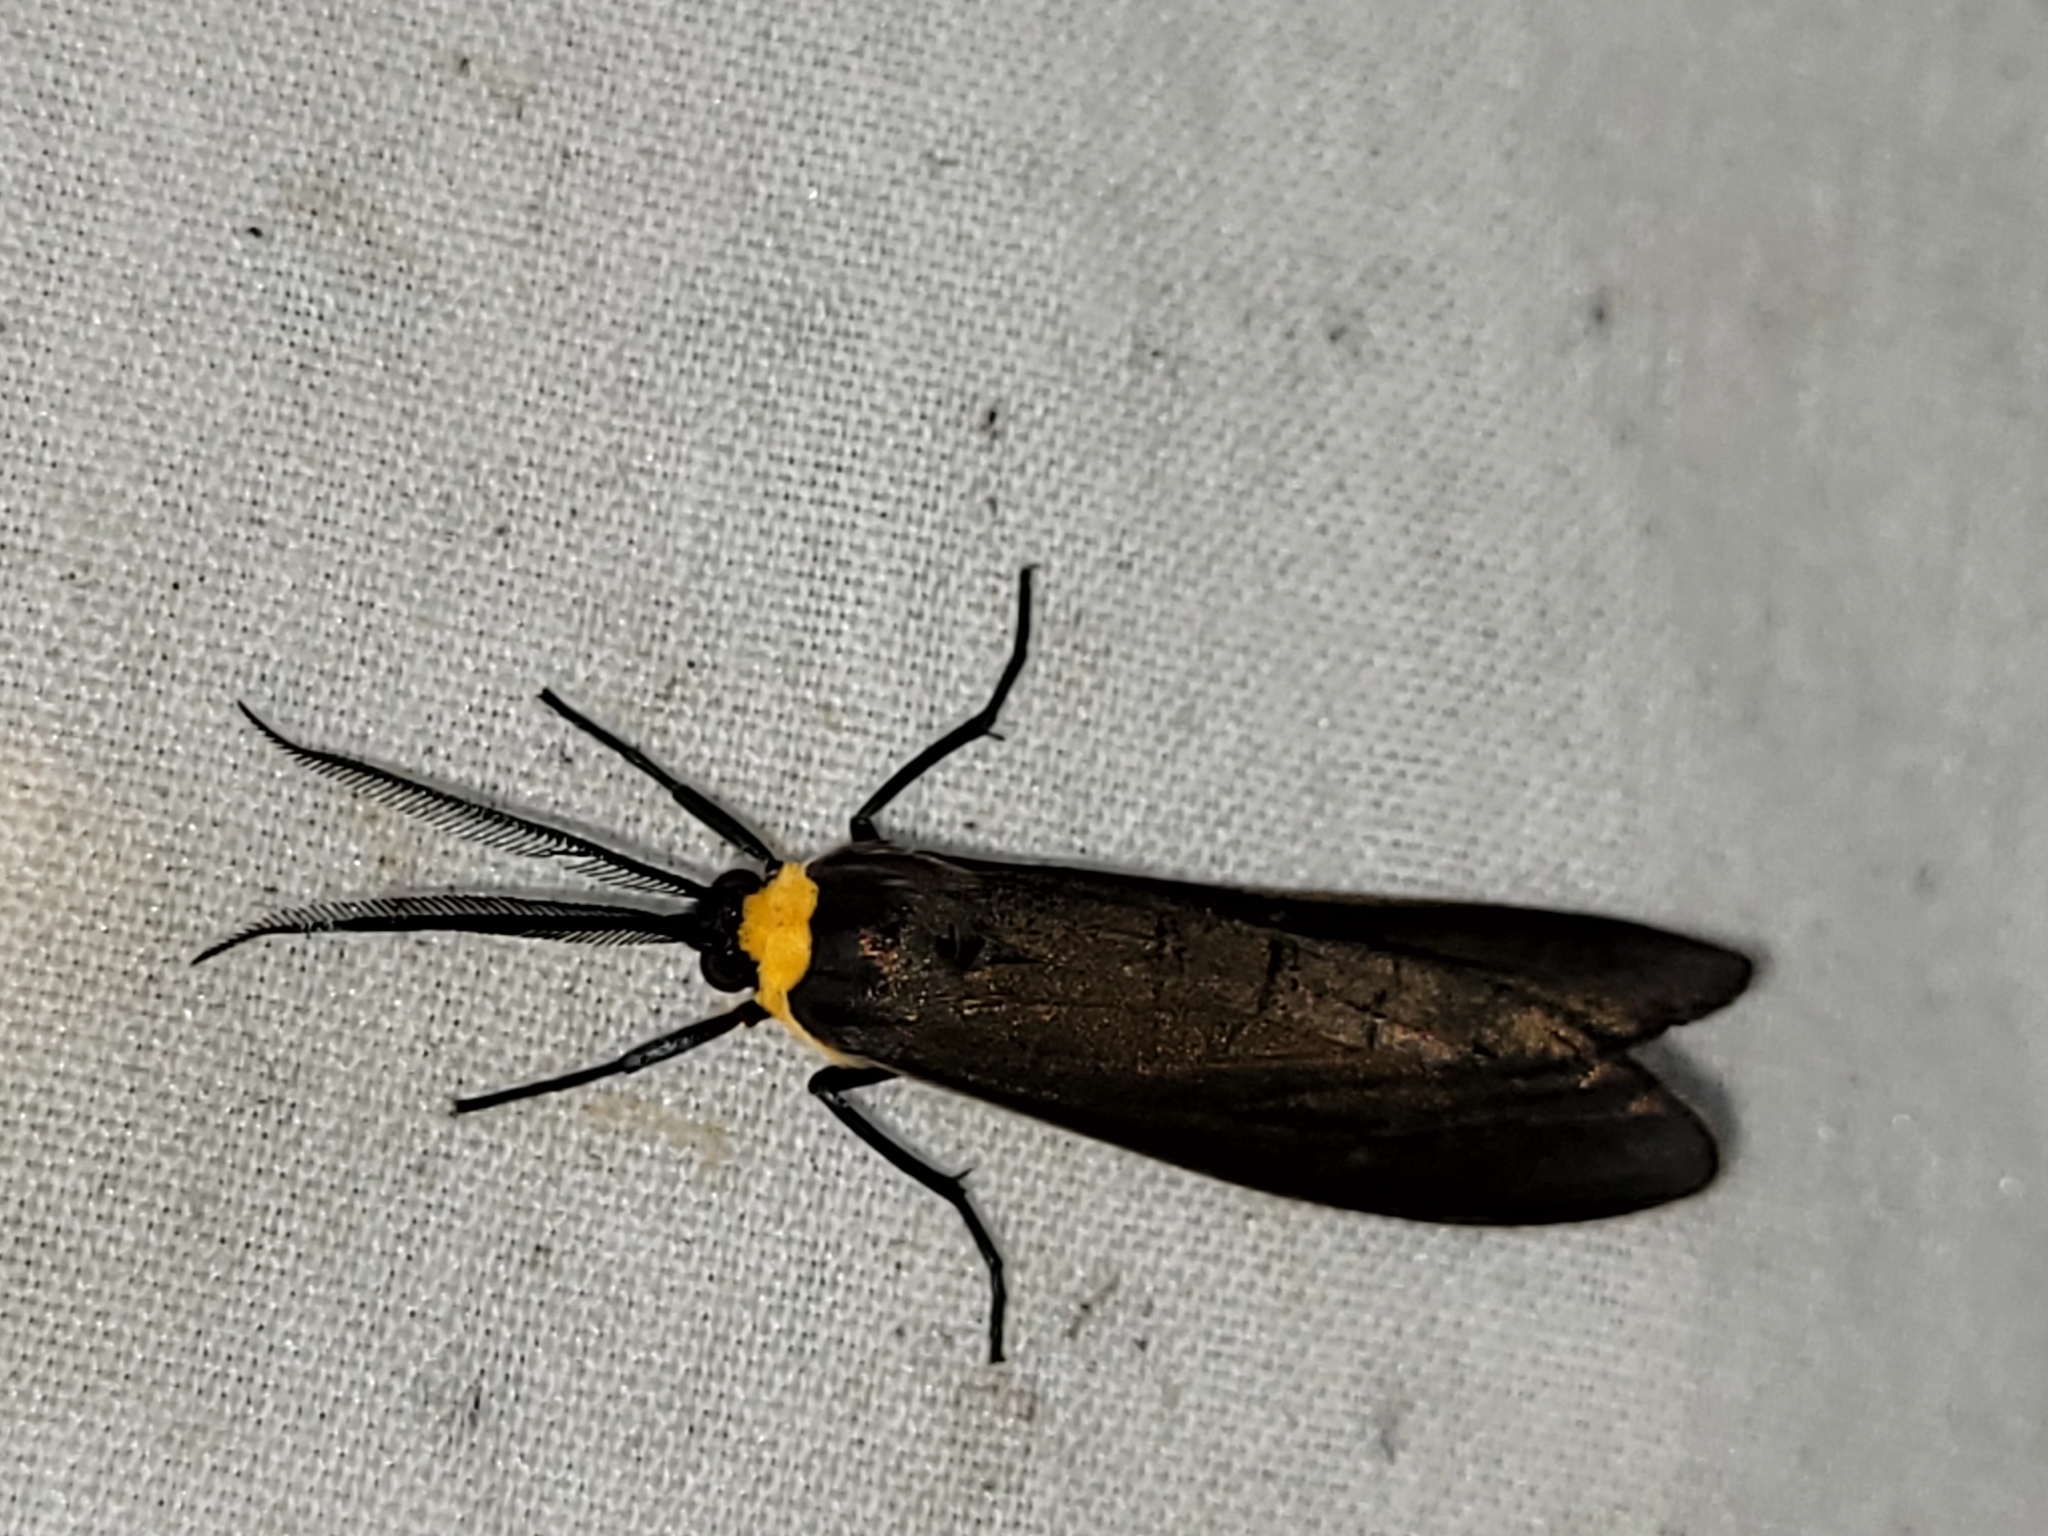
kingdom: Animalia
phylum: Arthropoda
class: Insecta
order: Lepidoptera
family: Erebidae
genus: Cisseps
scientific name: Cisseps fulvicollis
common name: Yellow-collared scape moth
